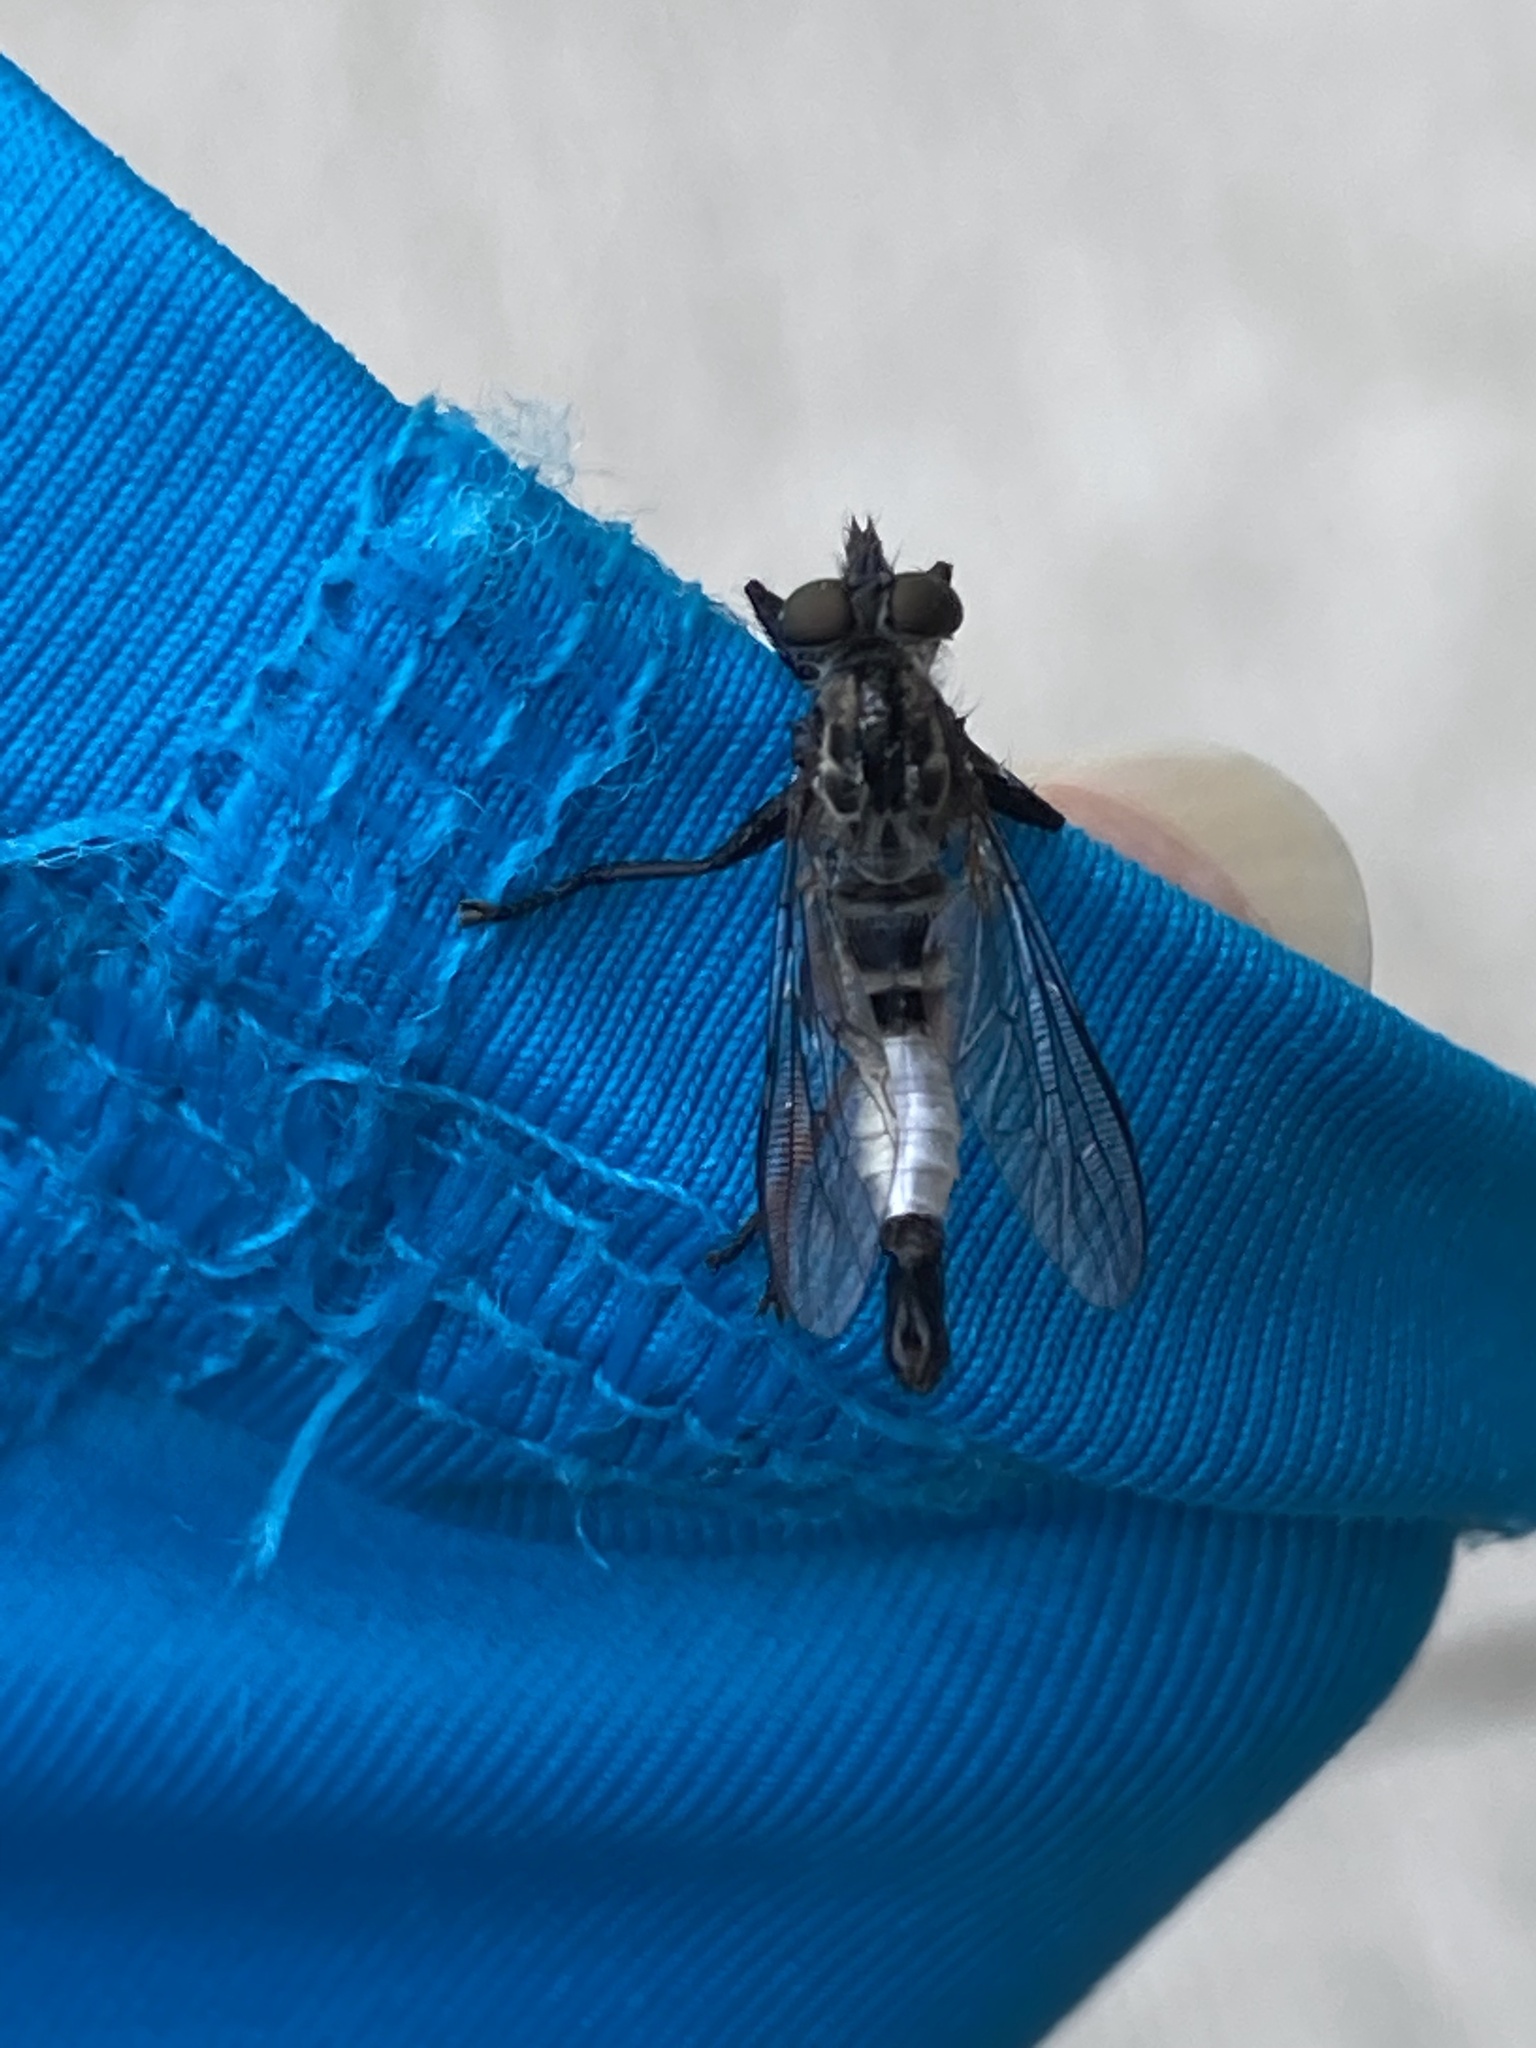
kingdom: Animalia
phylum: Arthropoda
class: Insecta
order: Diptera
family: Asilidae
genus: Efferia
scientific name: Efferia aestuans
